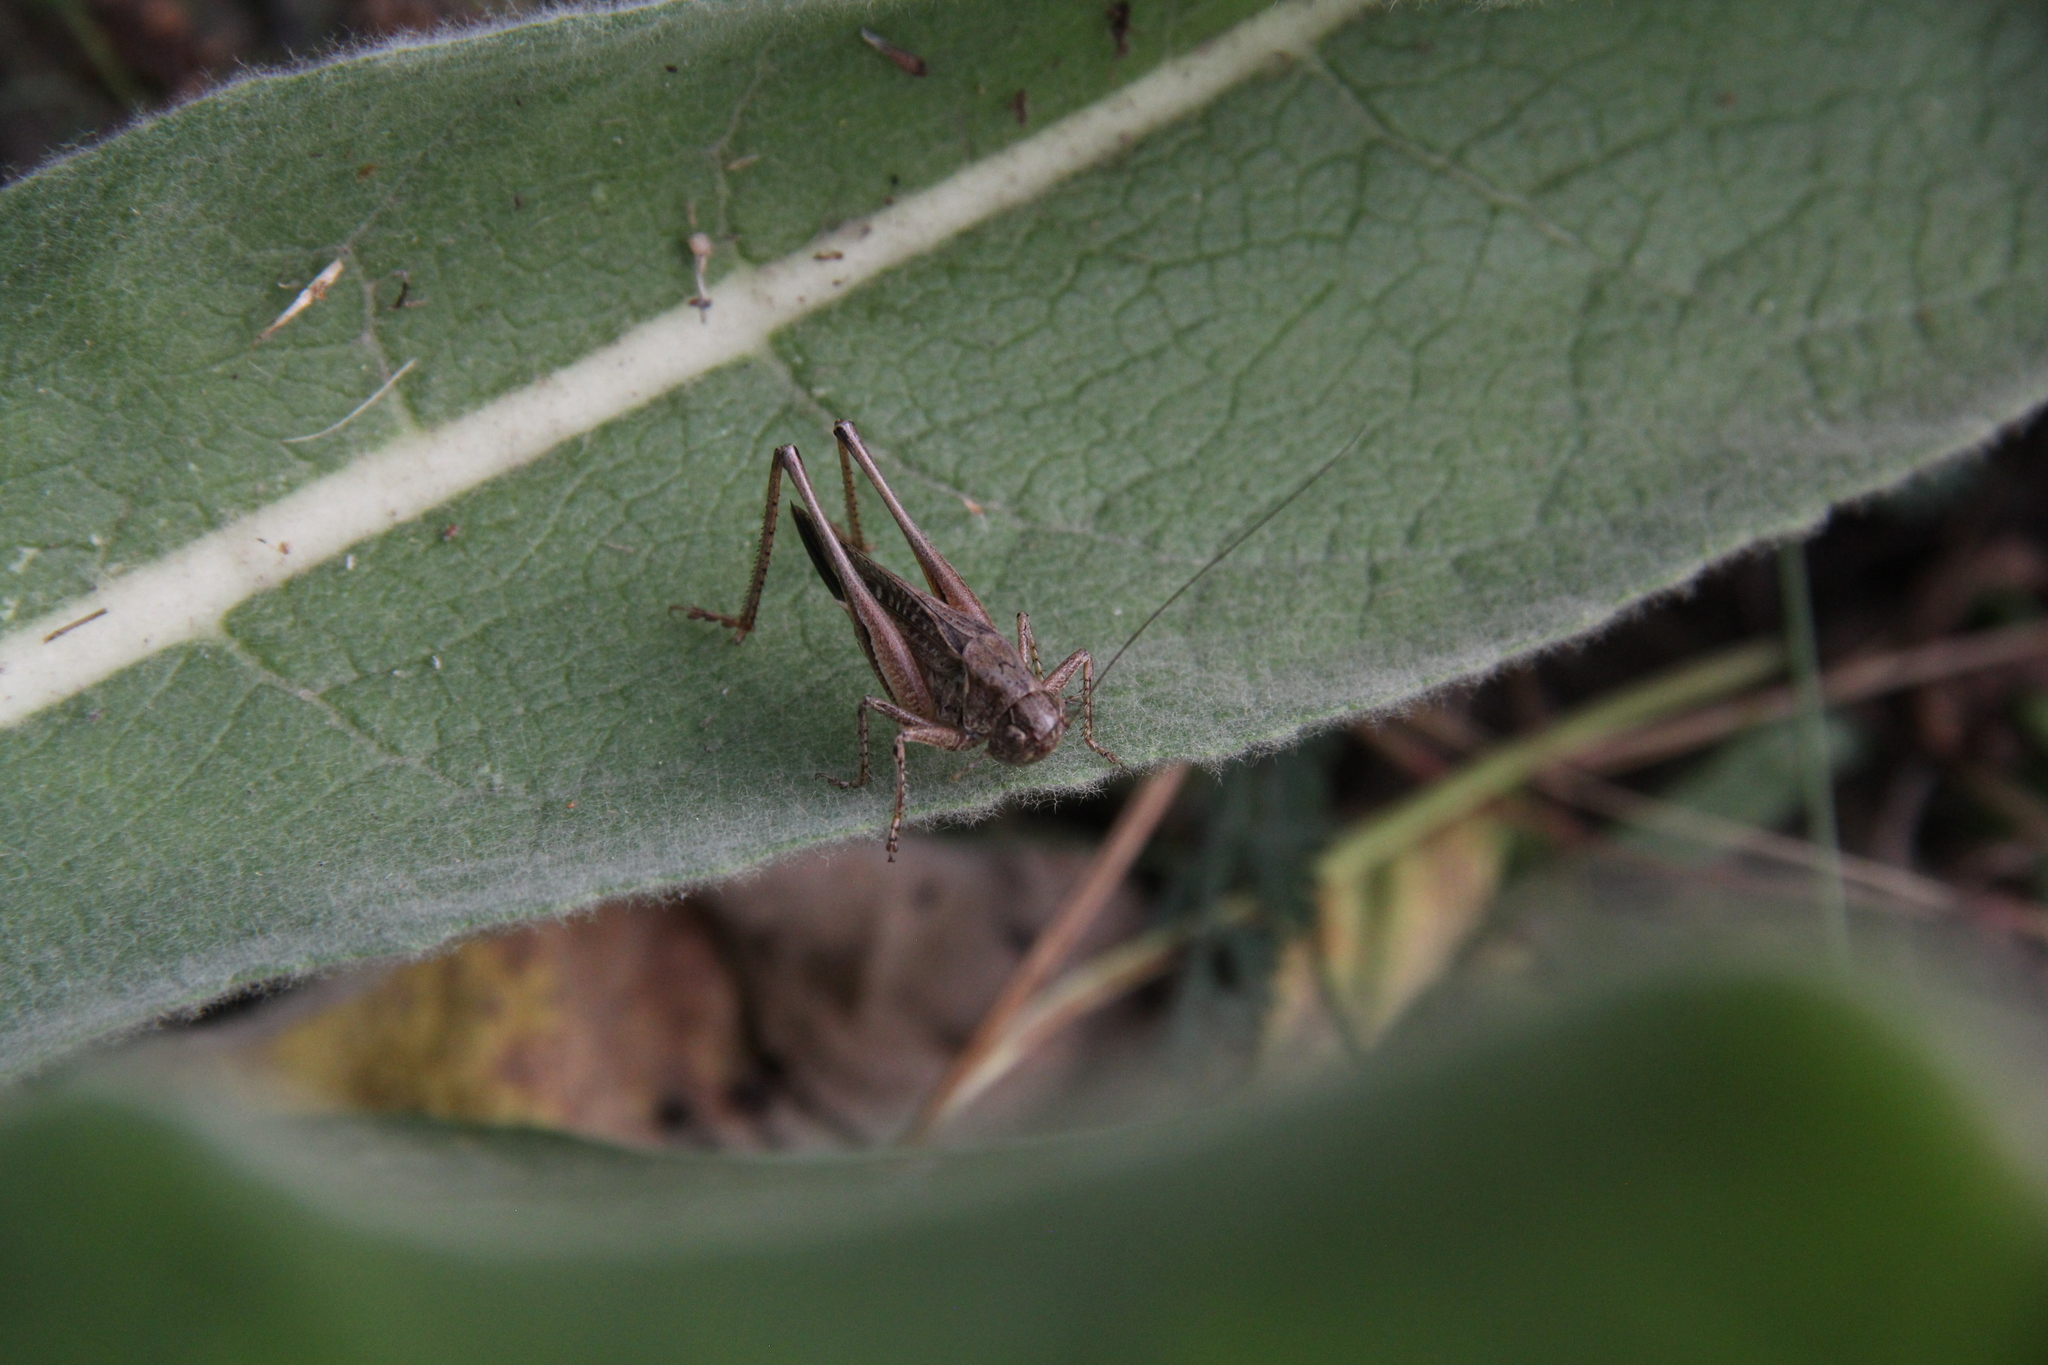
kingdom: Animalia
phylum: Arthropoda
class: Insecta
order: Orthoptera
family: Tettigoniidae
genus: Platycleis
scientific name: Platycleis albopunctata
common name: Grey bush-cricket
